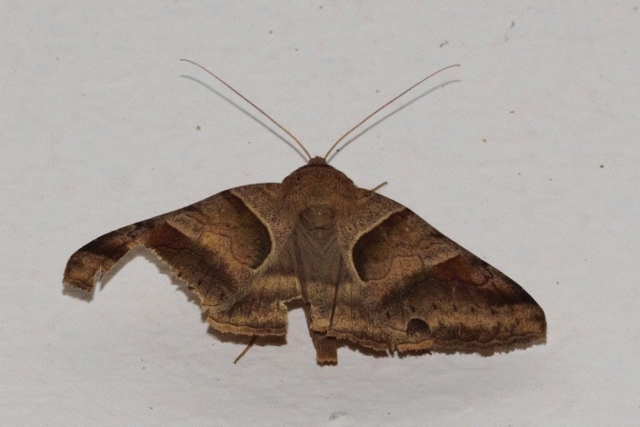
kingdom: Animalia
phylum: Arthropoda
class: Insecta
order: Lepidoptera
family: Erebidae
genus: Mocis
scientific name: Mocis mayeri
